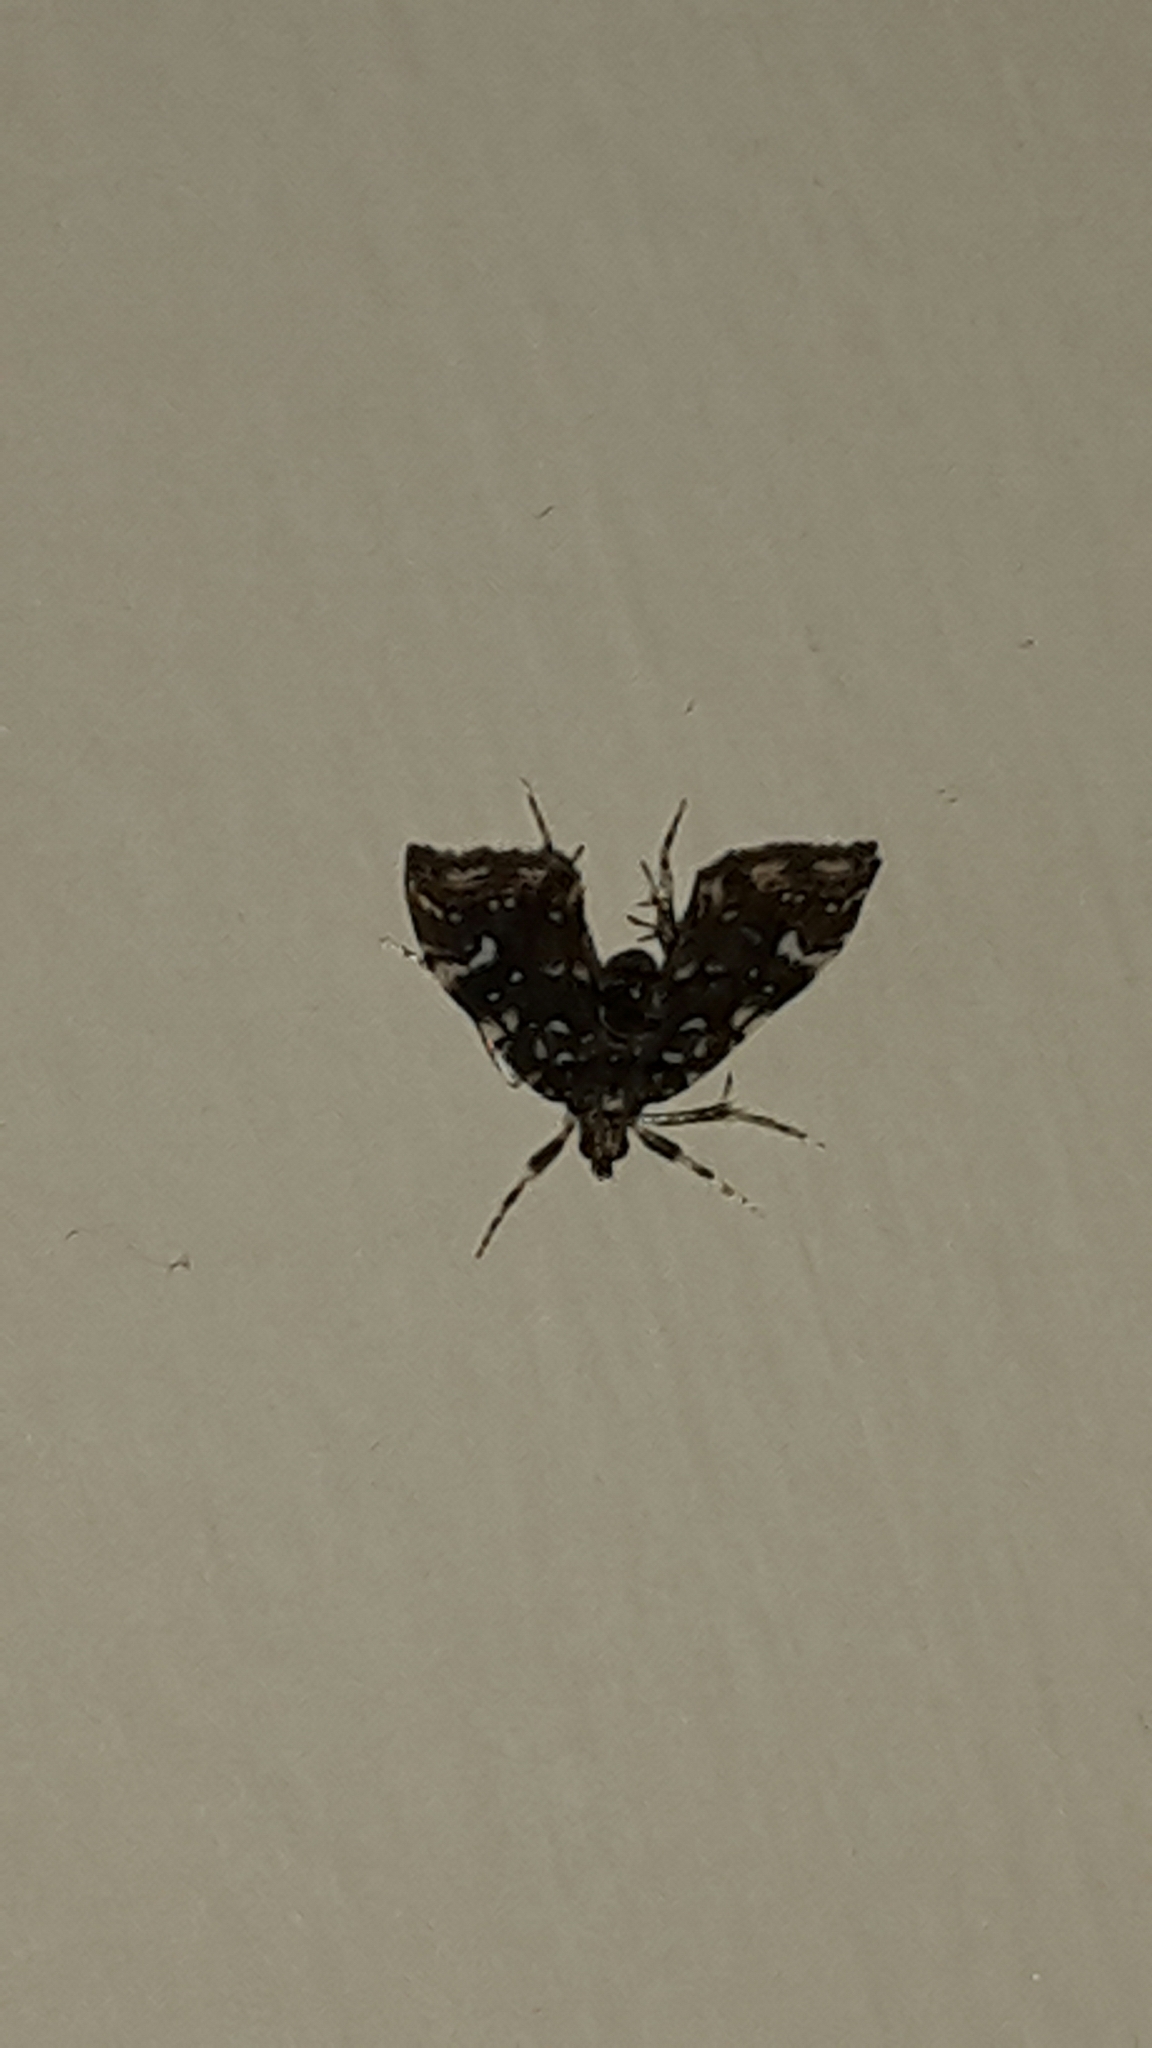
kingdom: Animalia
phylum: Arthropoda
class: Insecta
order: Lepidoptera
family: Pyralidae
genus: Musotima
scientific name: Musotima nitidalis
